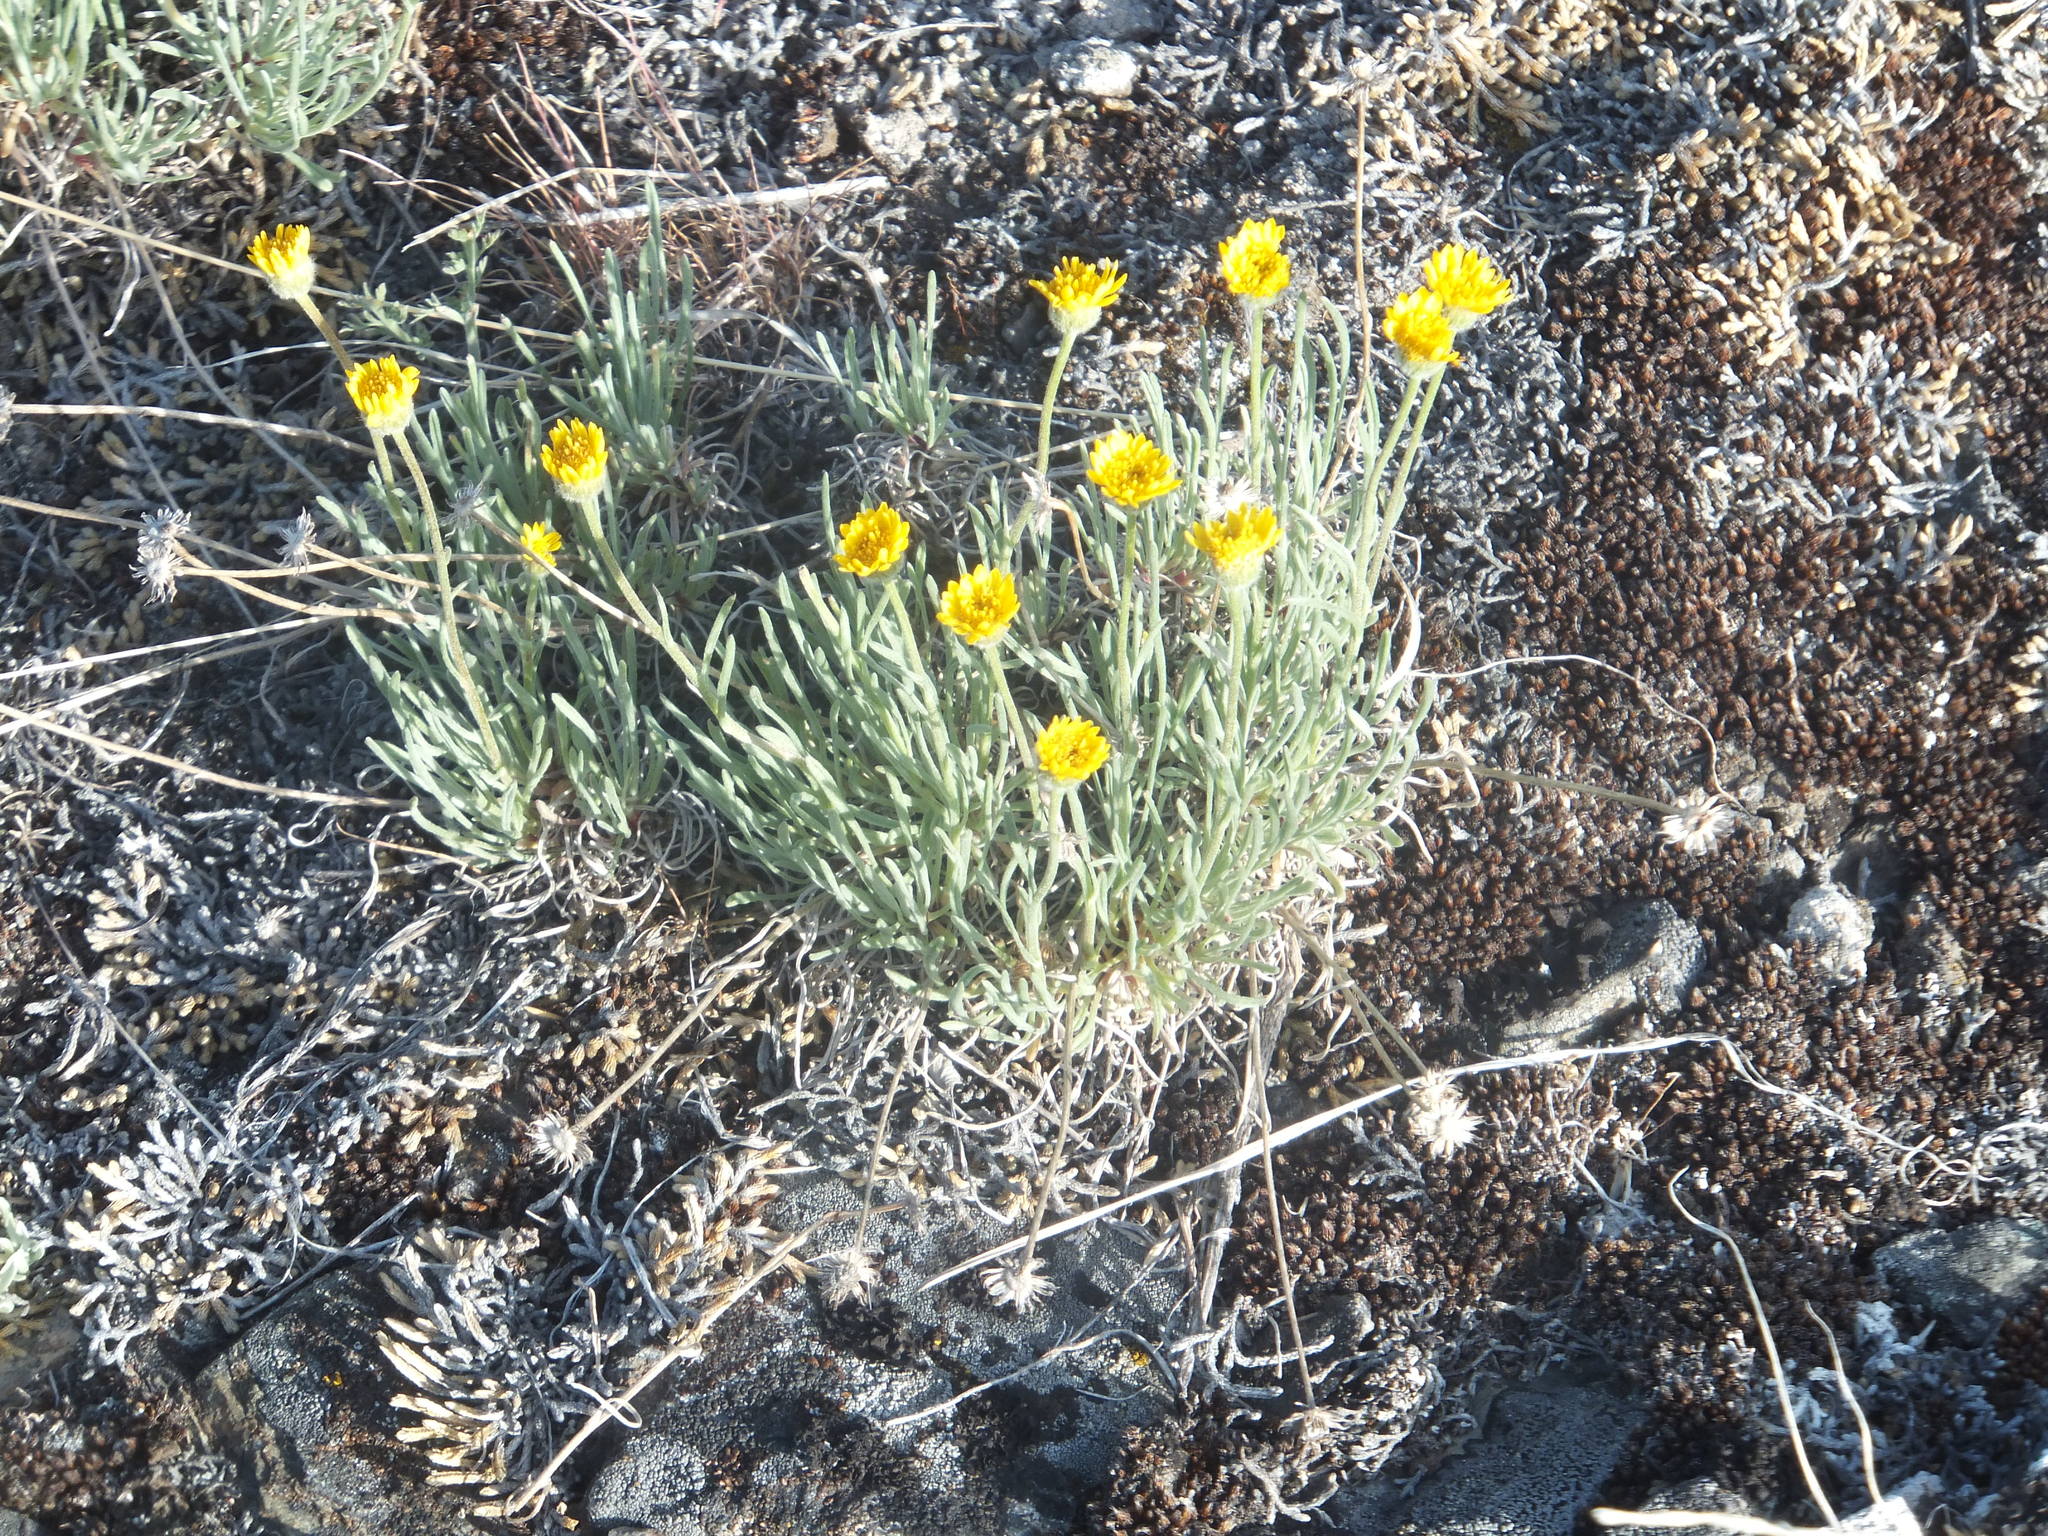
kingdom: Plantae
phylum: Tracheophyta
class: Magnoliopsida
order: Asterales
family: Asteraceae
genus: Erigeron
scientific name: Erigeron linearis
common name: Desert yellow fleabane
